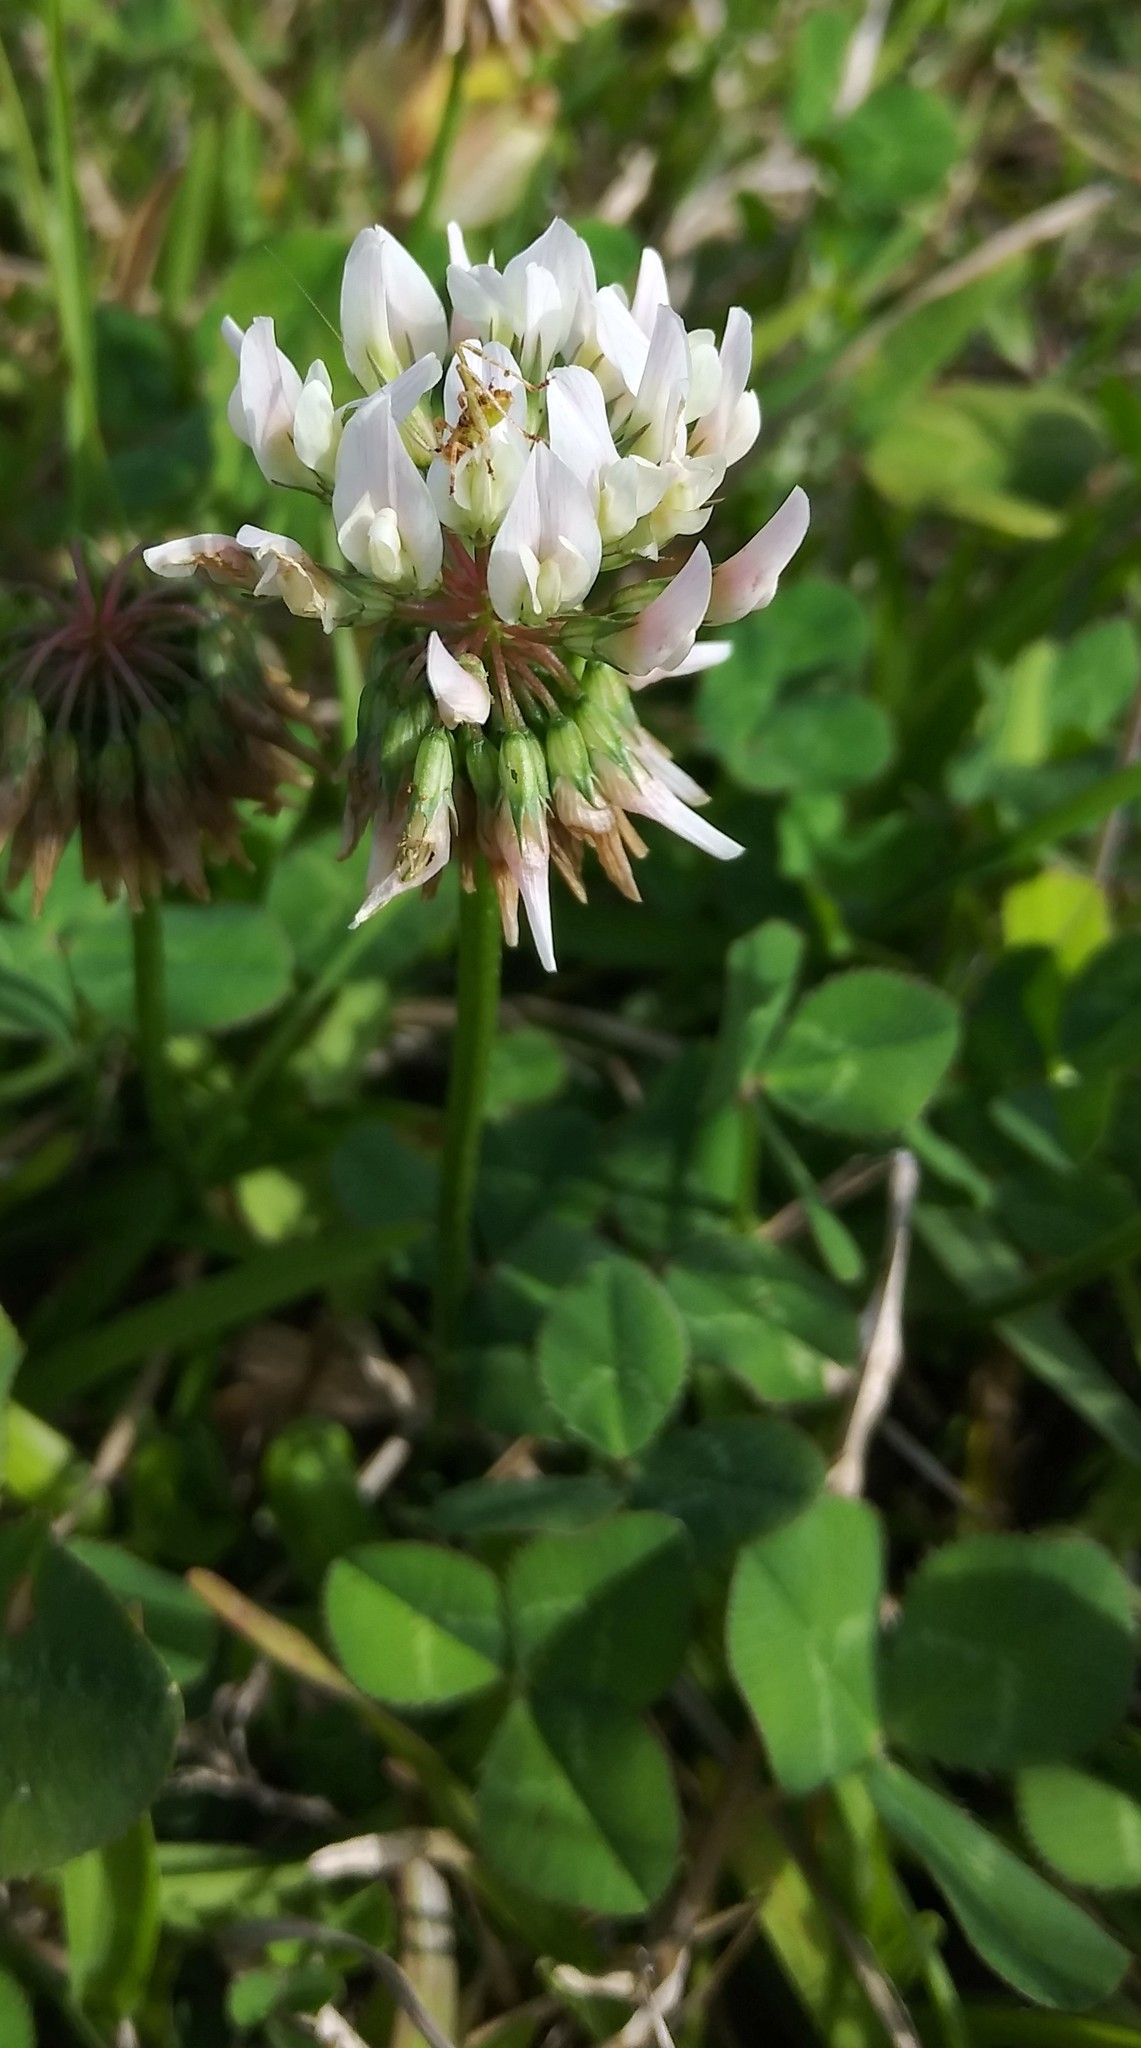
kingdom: Plantae
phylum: Tracheophyta
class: Magnoliopsida
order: Fabales
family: Fabaceae
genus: Trifolium
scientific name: Trifolium repens
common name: White clover
